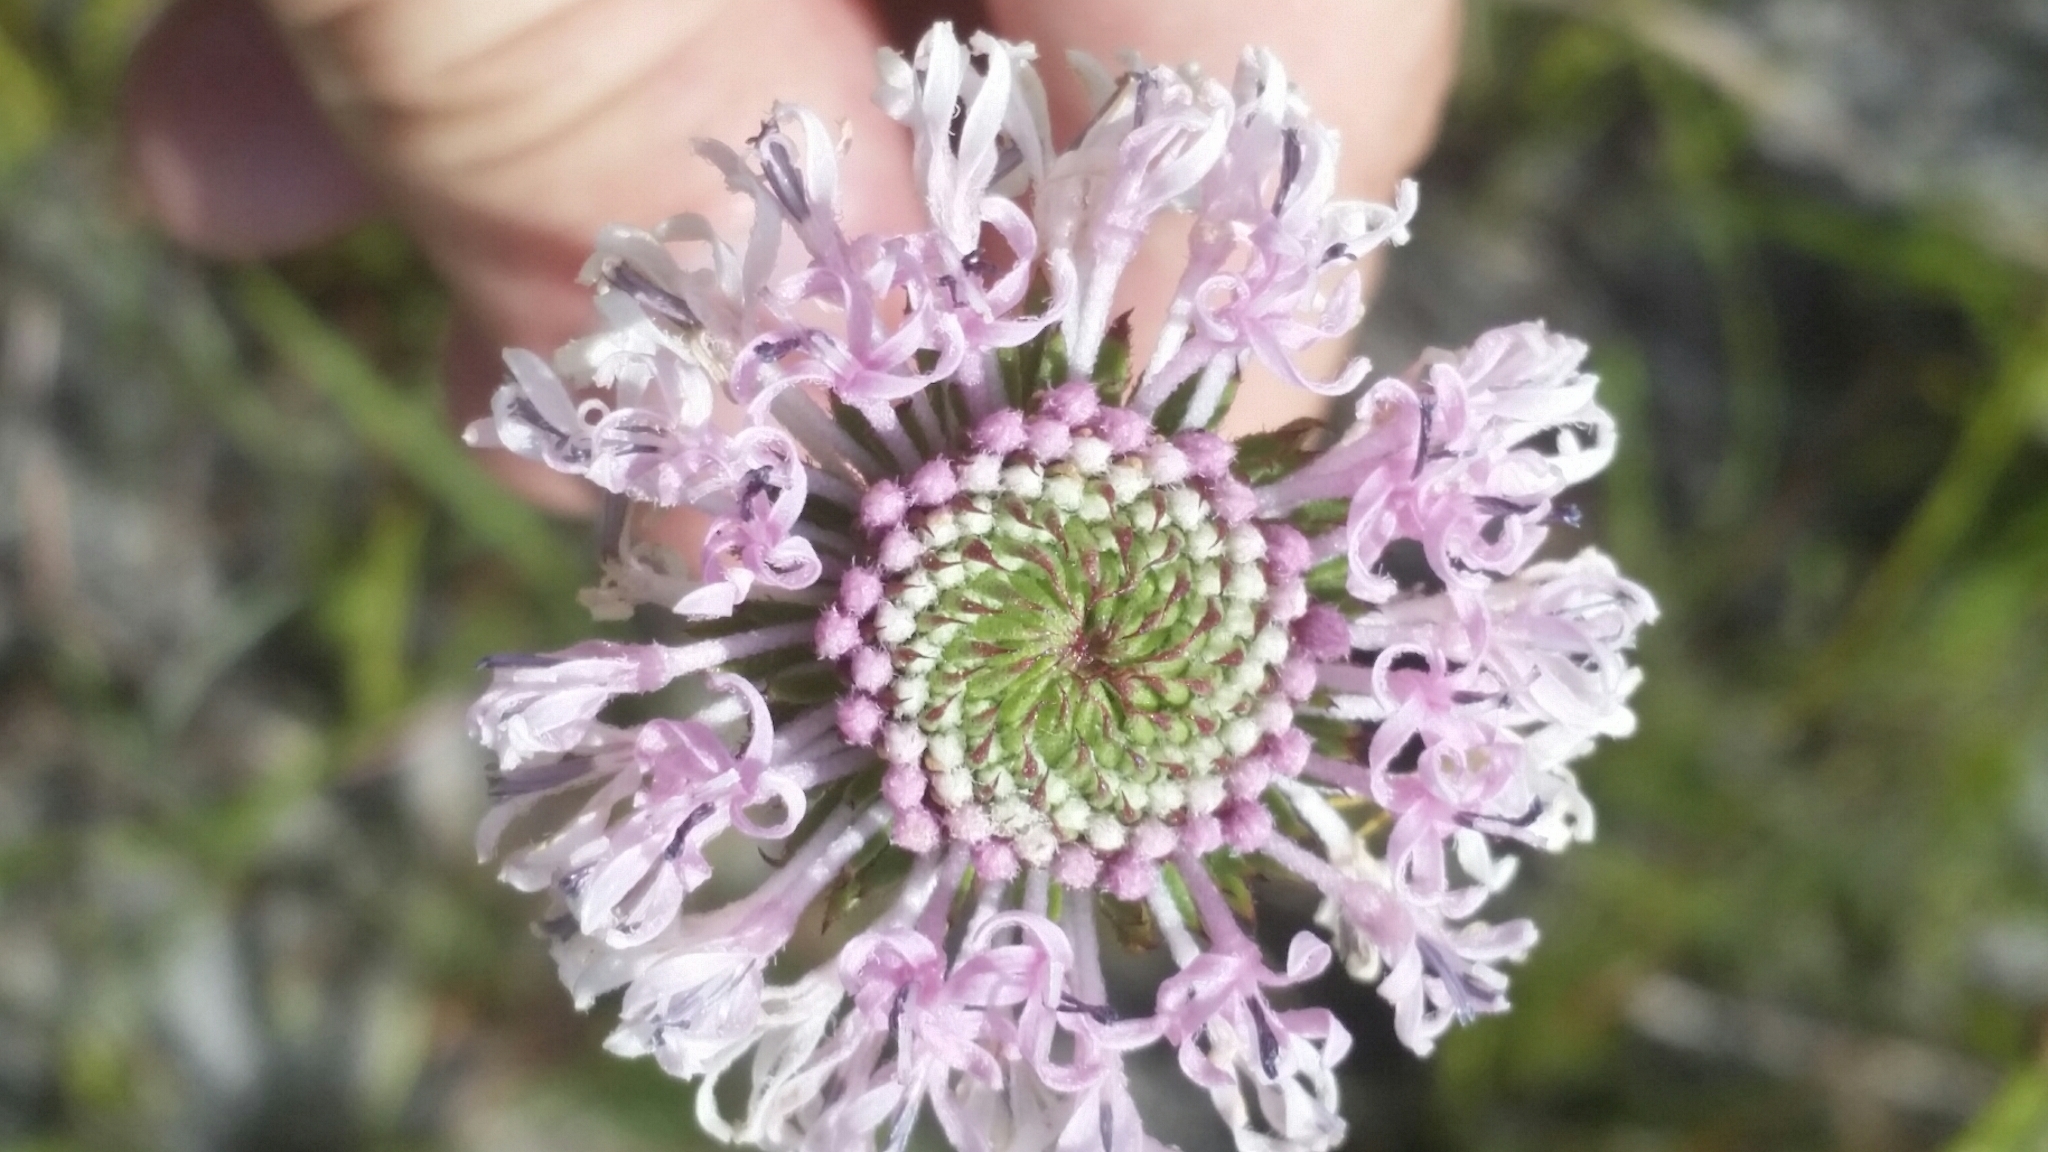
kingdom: Plantae
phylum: Tracheophyta
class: Magnoliopsida
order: Asterales
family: Asteraceae
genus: Marshallia
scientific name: Marshallia graminifolia
